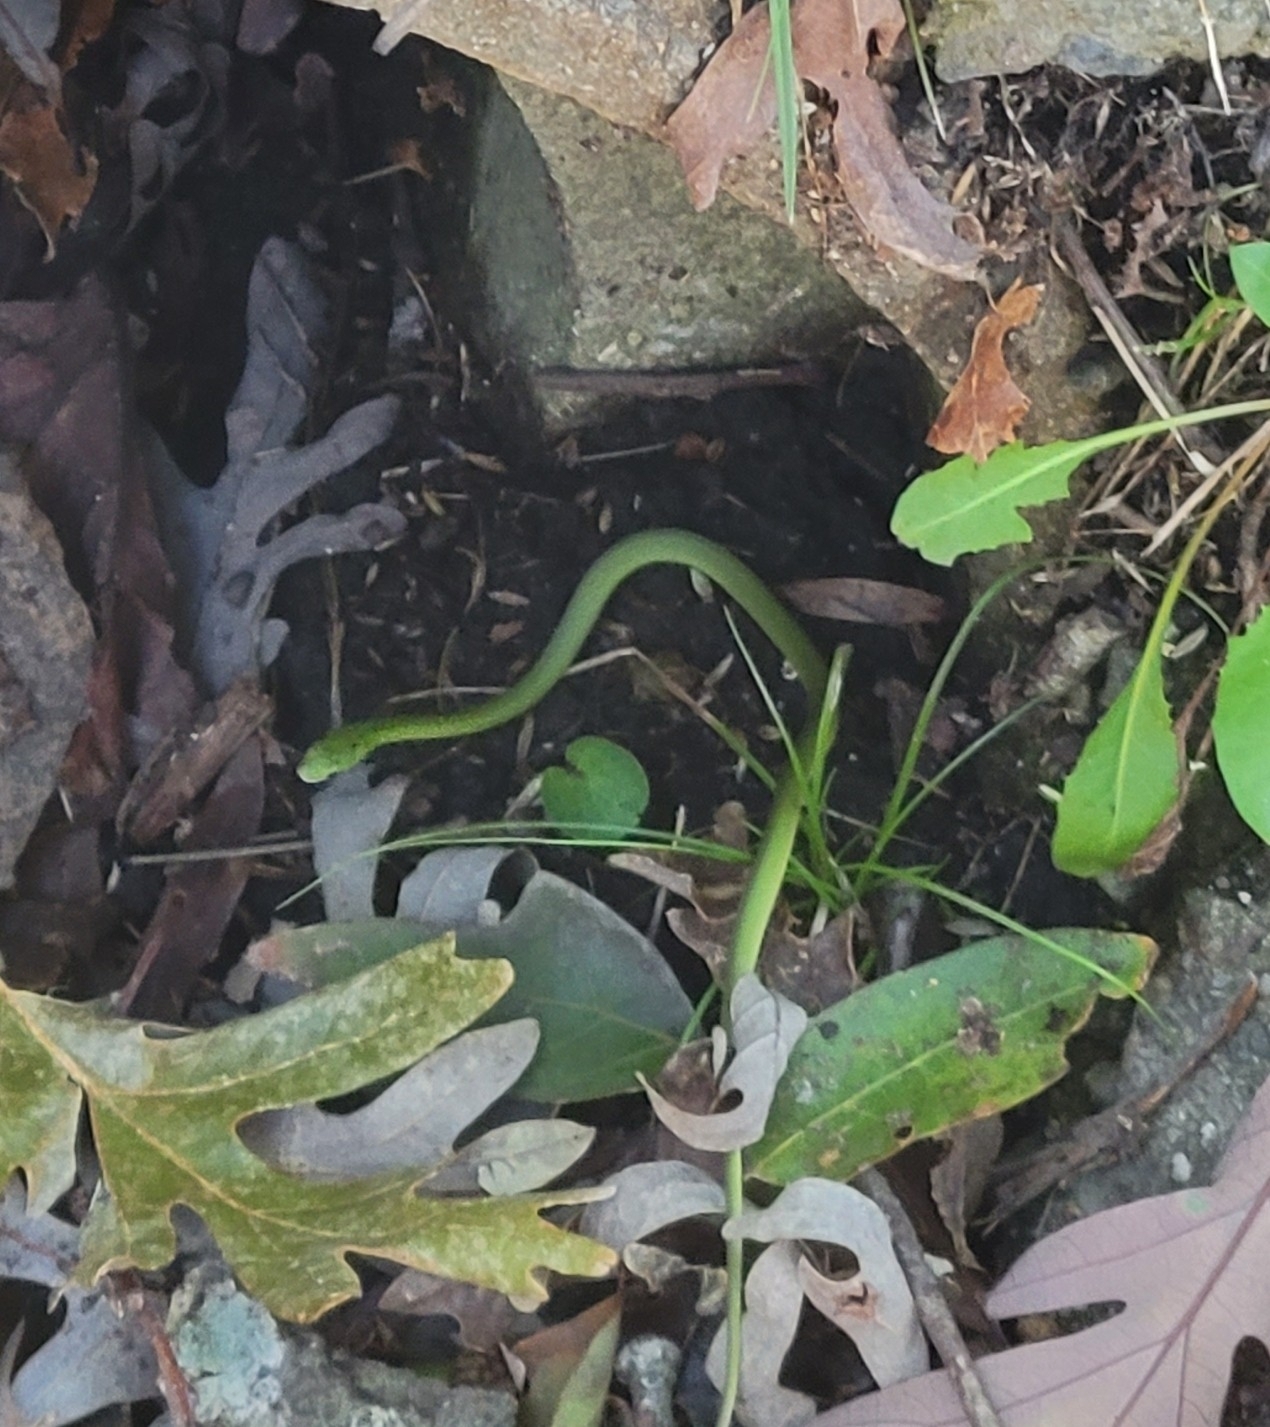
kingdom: Animalia
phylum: Chordata
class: Squamata
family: Colubridae
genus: Opheodrys
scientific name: Opheodrys aestivus
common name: Rough greensnake
